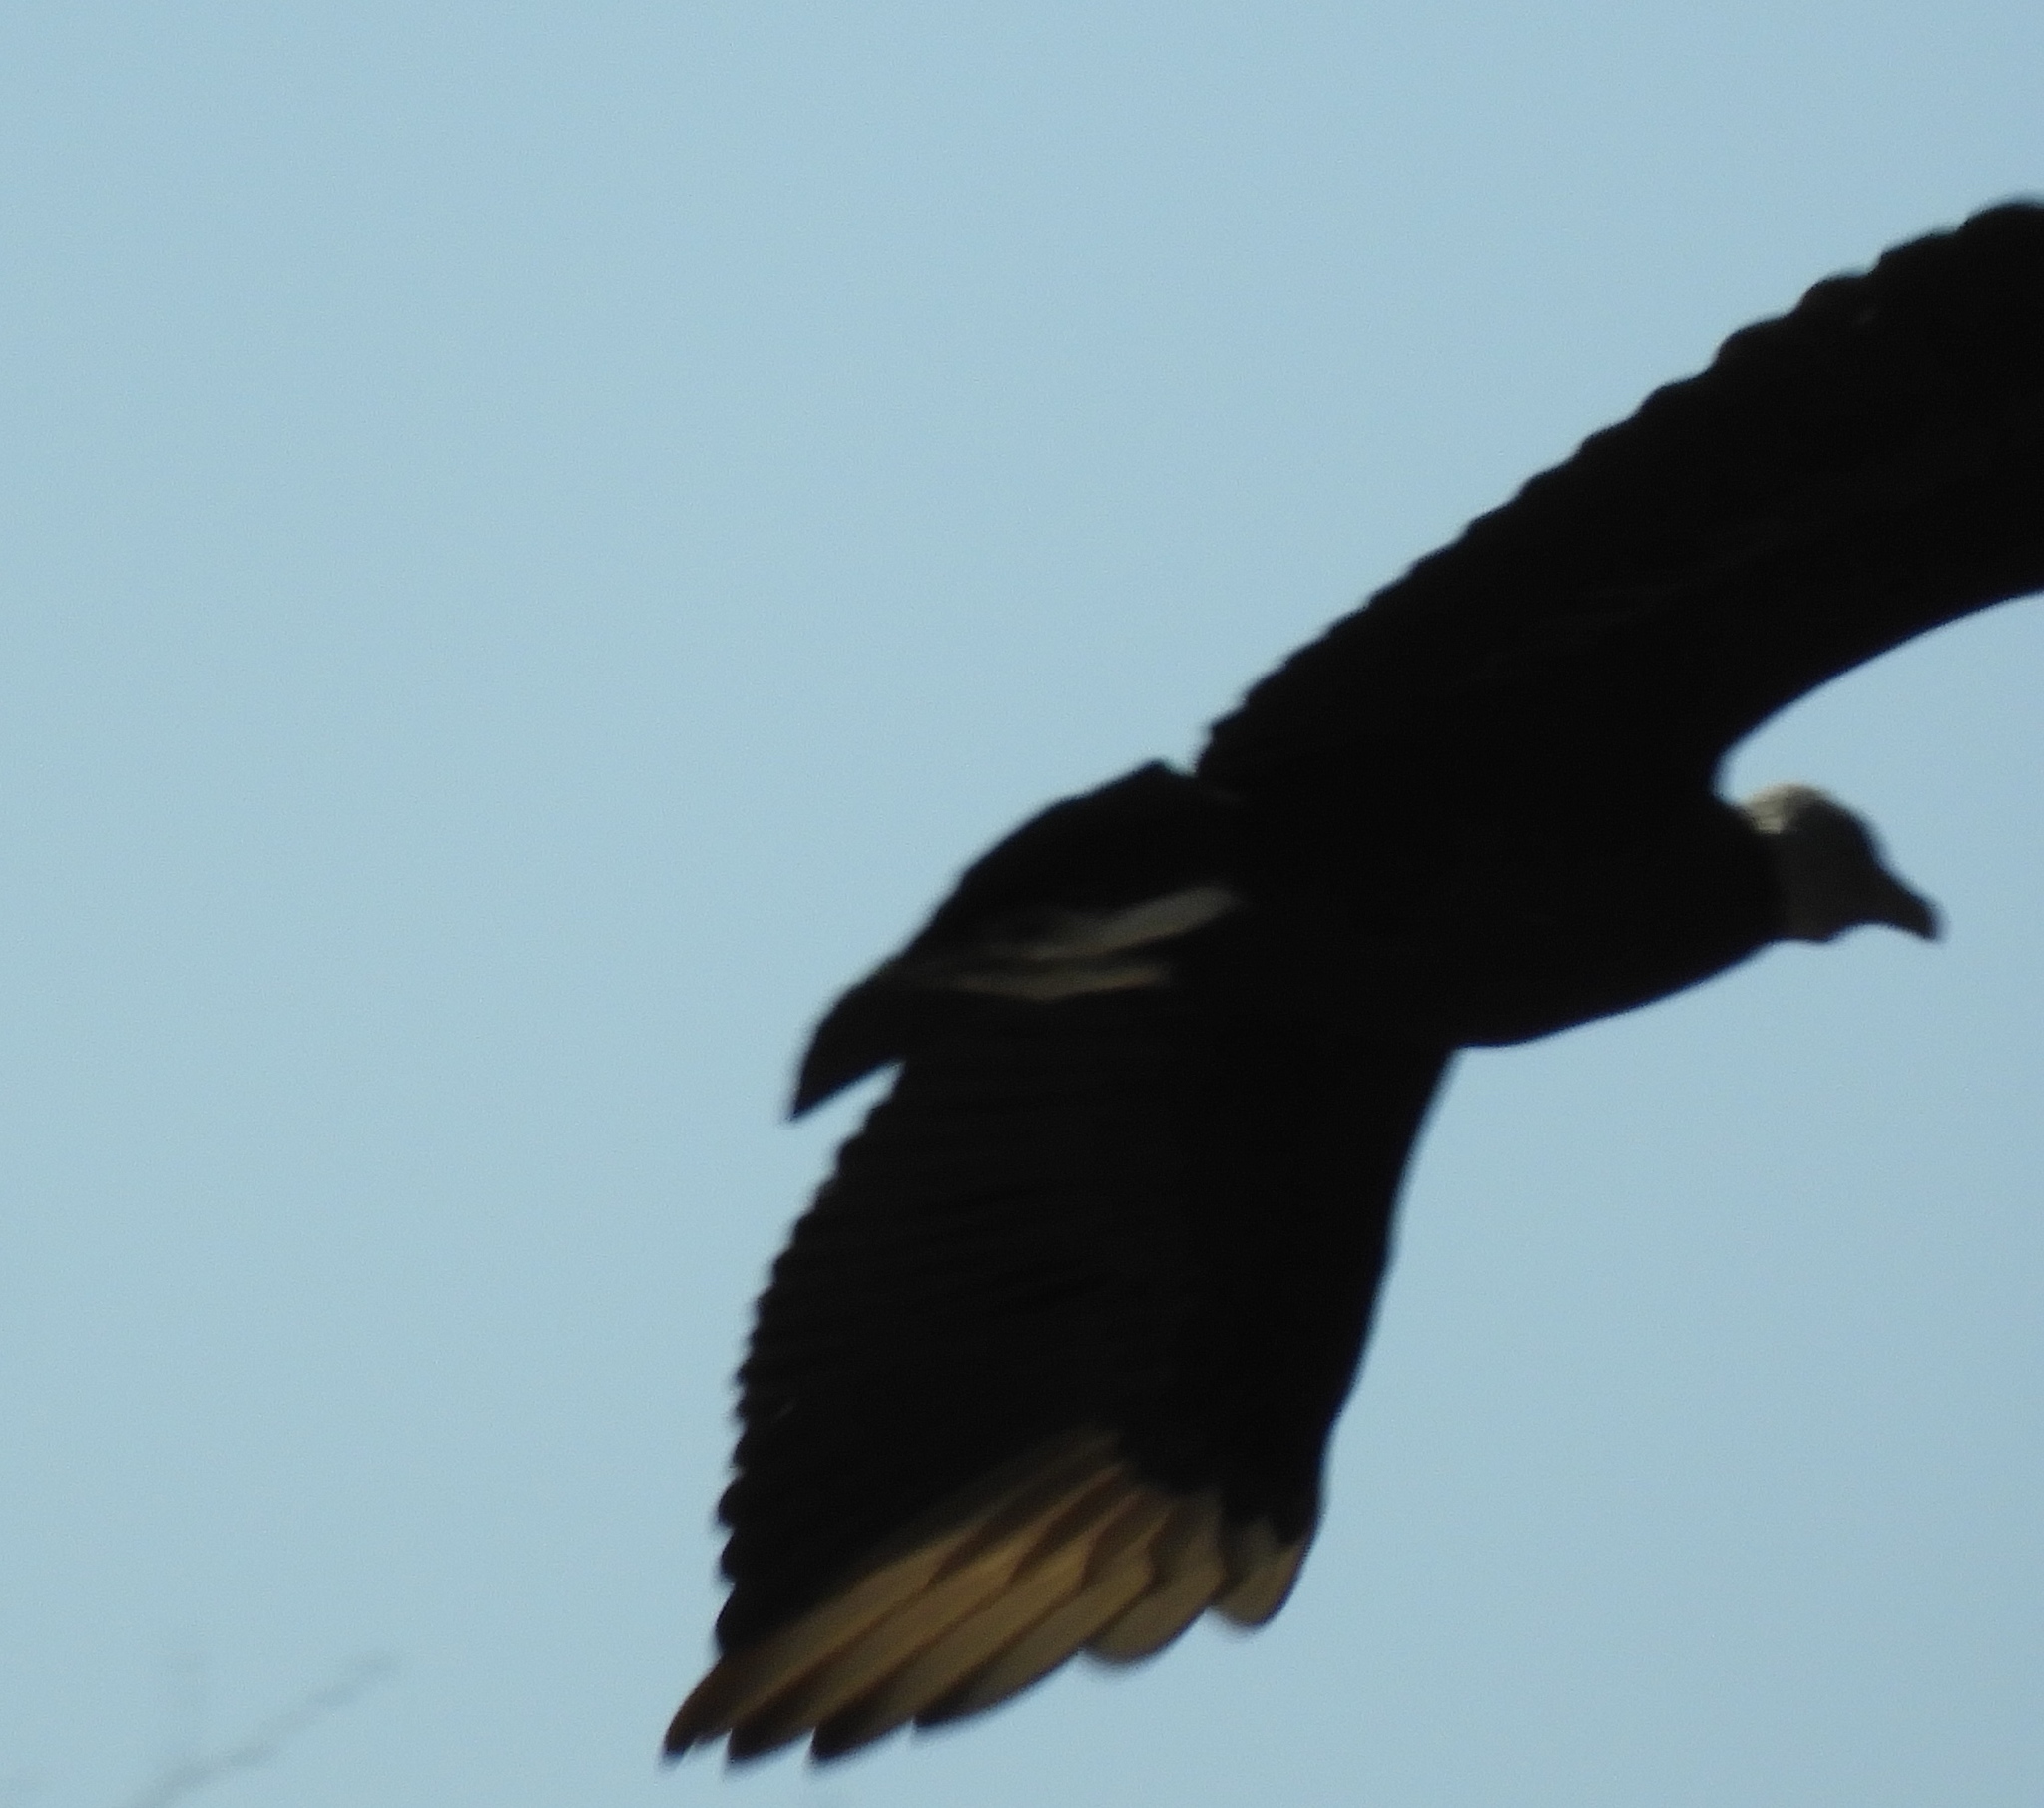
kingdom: Animalia
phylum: Chordata
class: Aves
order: Accipitriformes
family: Cathartidae
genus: Coragyps
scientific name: Coragyps atratus
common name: Black vulture
